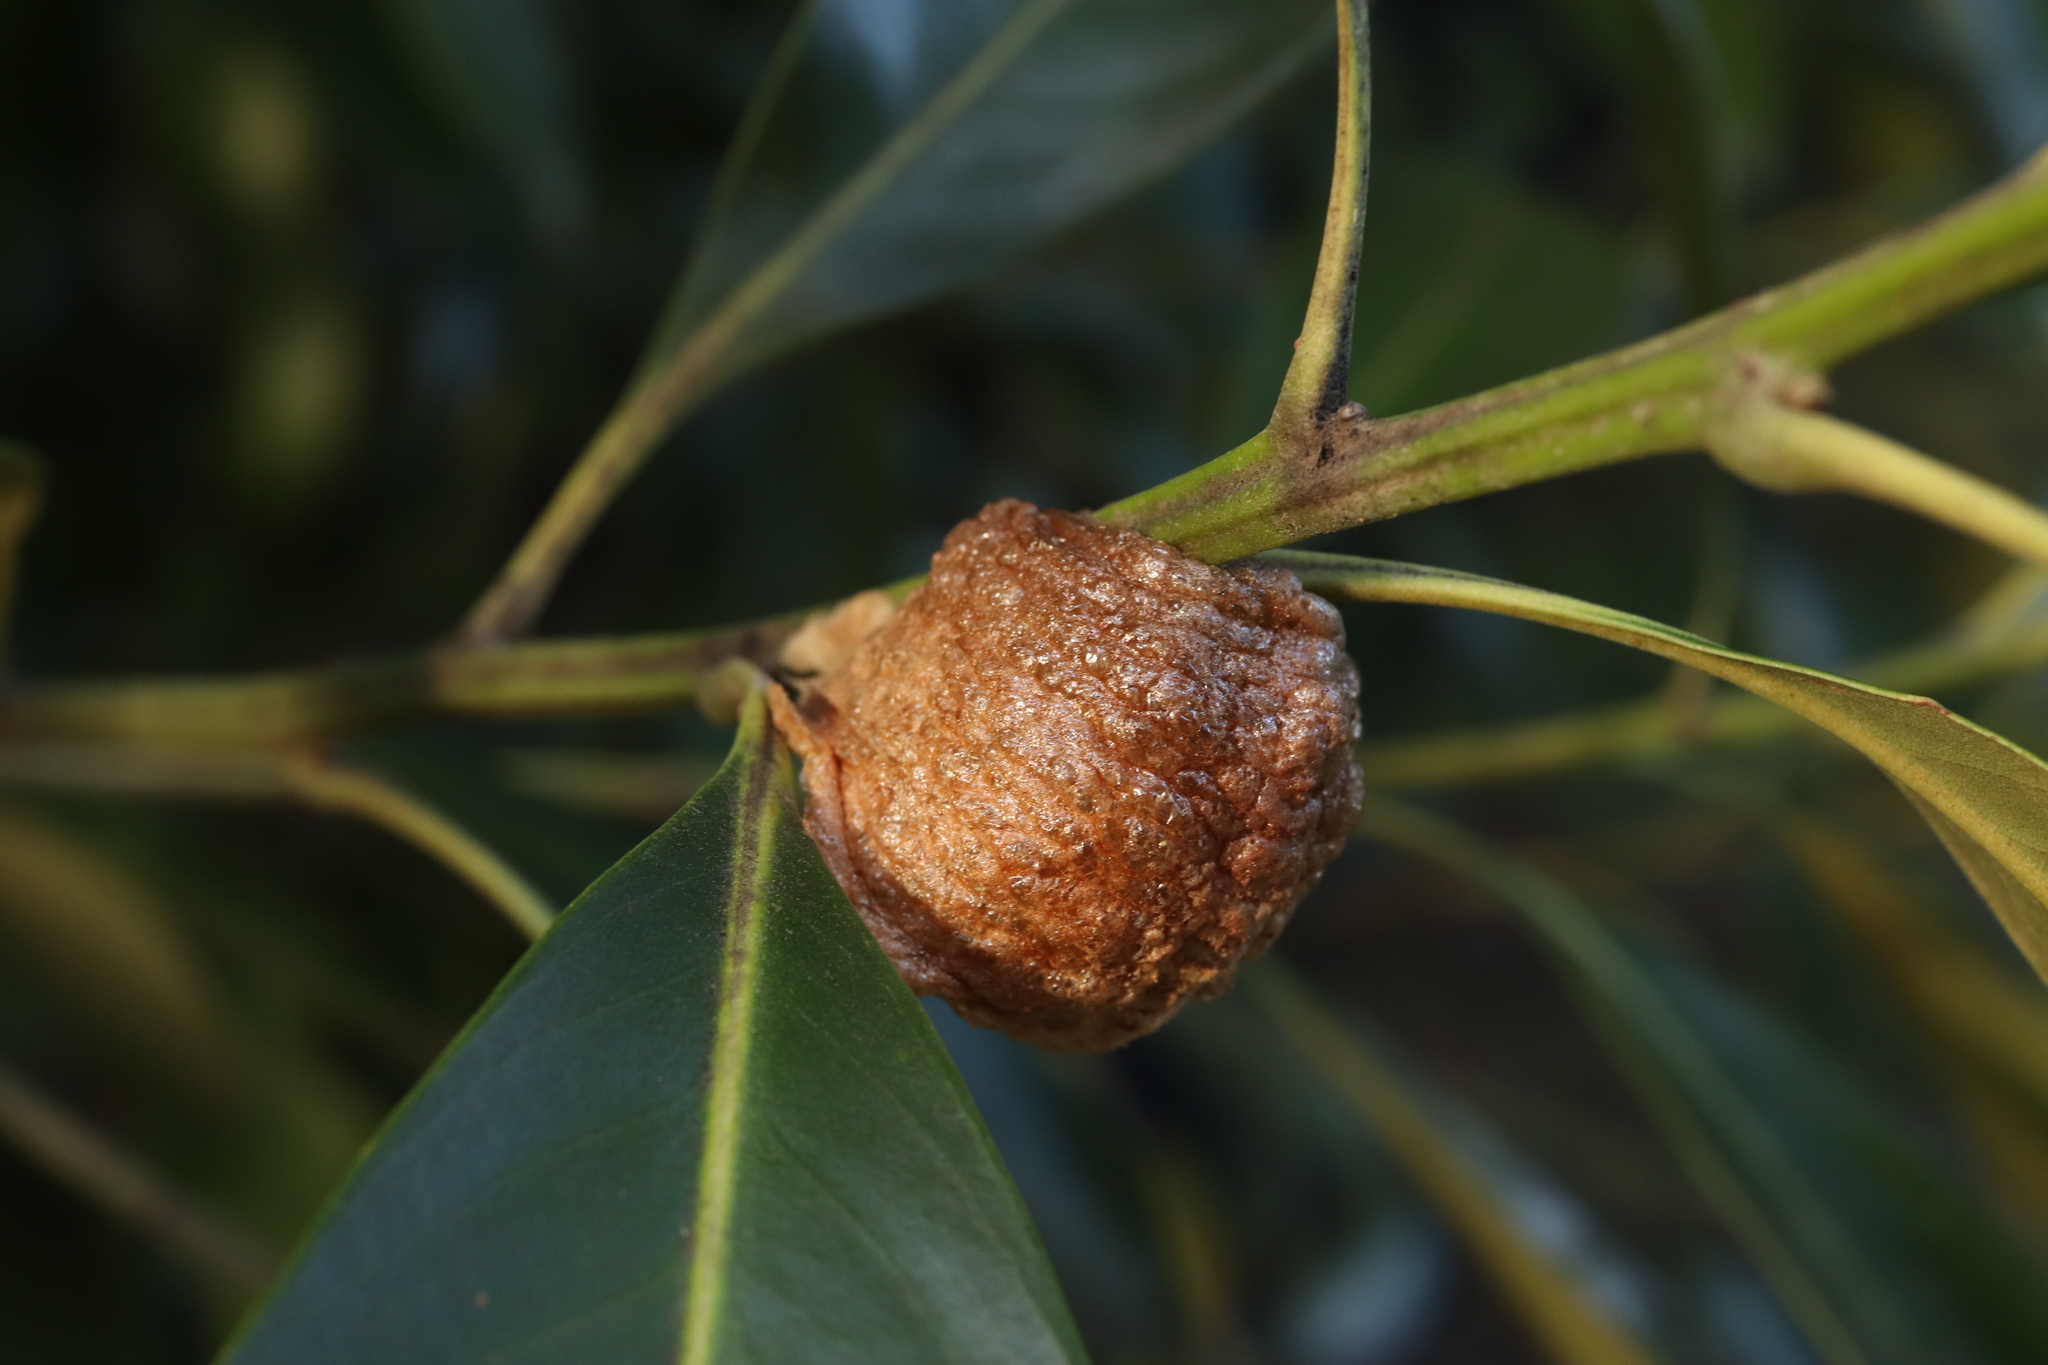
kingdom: Animalia
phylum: Arthropoda
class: Insecta
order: Mantodea
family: Mantidae
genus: Tenodera
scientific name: Tenodera sinensis
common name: Chinese mantis
